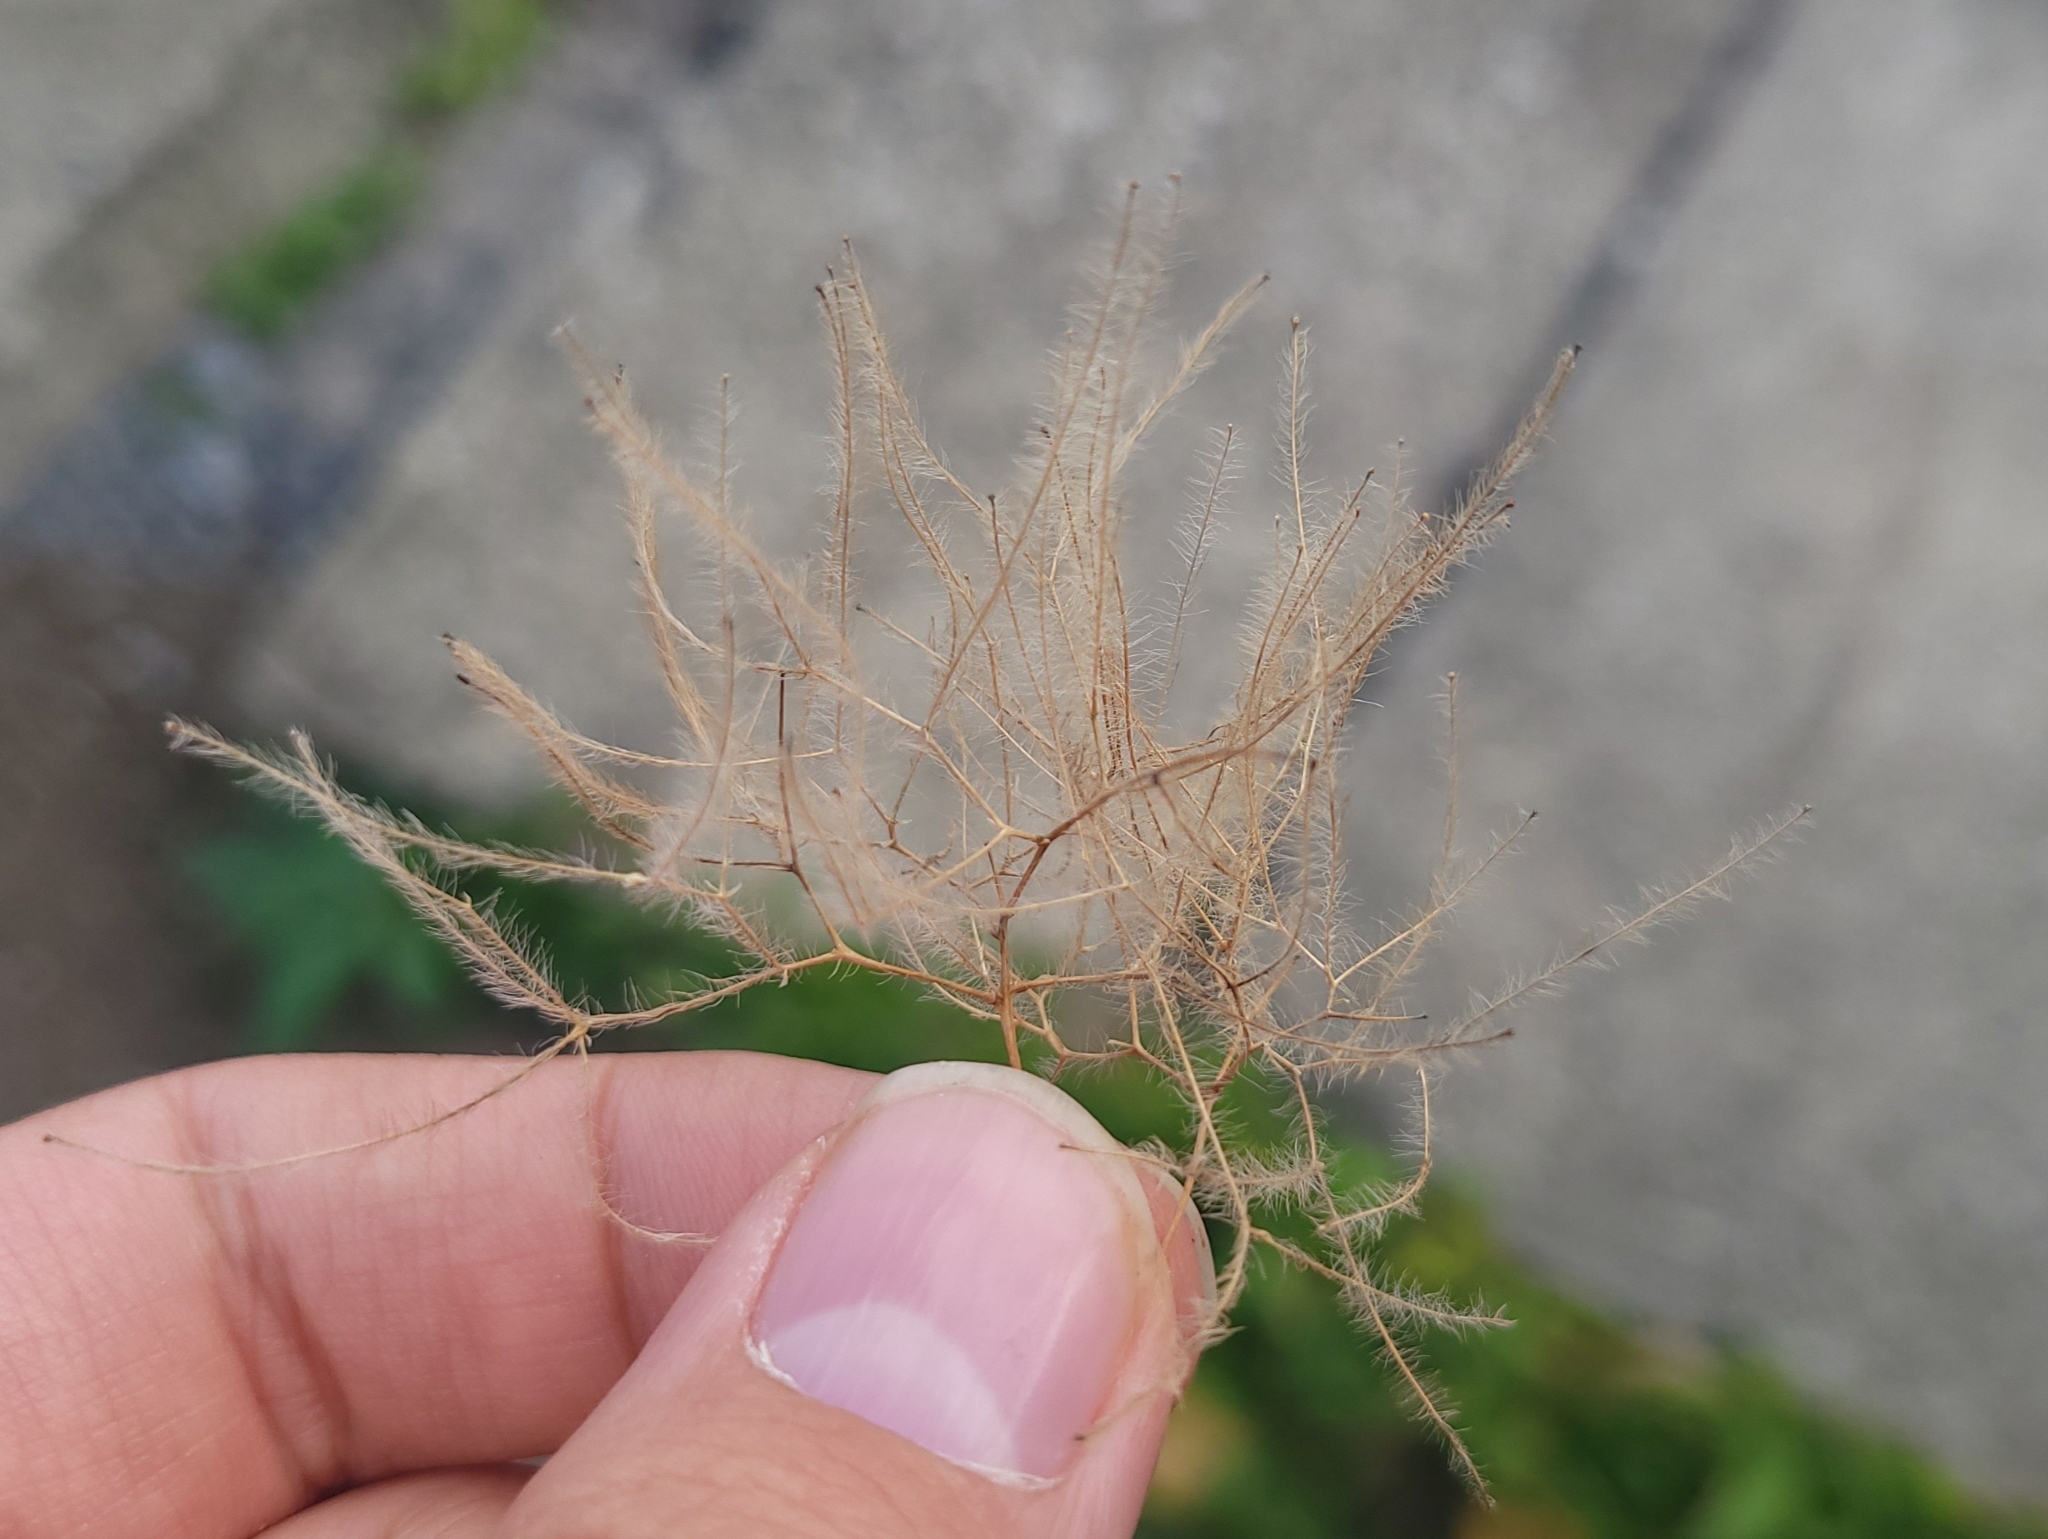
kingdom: Plantae
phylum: Tracheophyta
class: Magnoliopsida
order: Sapindales
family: Anacardiaceae
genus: Cotinus
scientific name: Cotinus coggygria
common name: Smoke-tree
